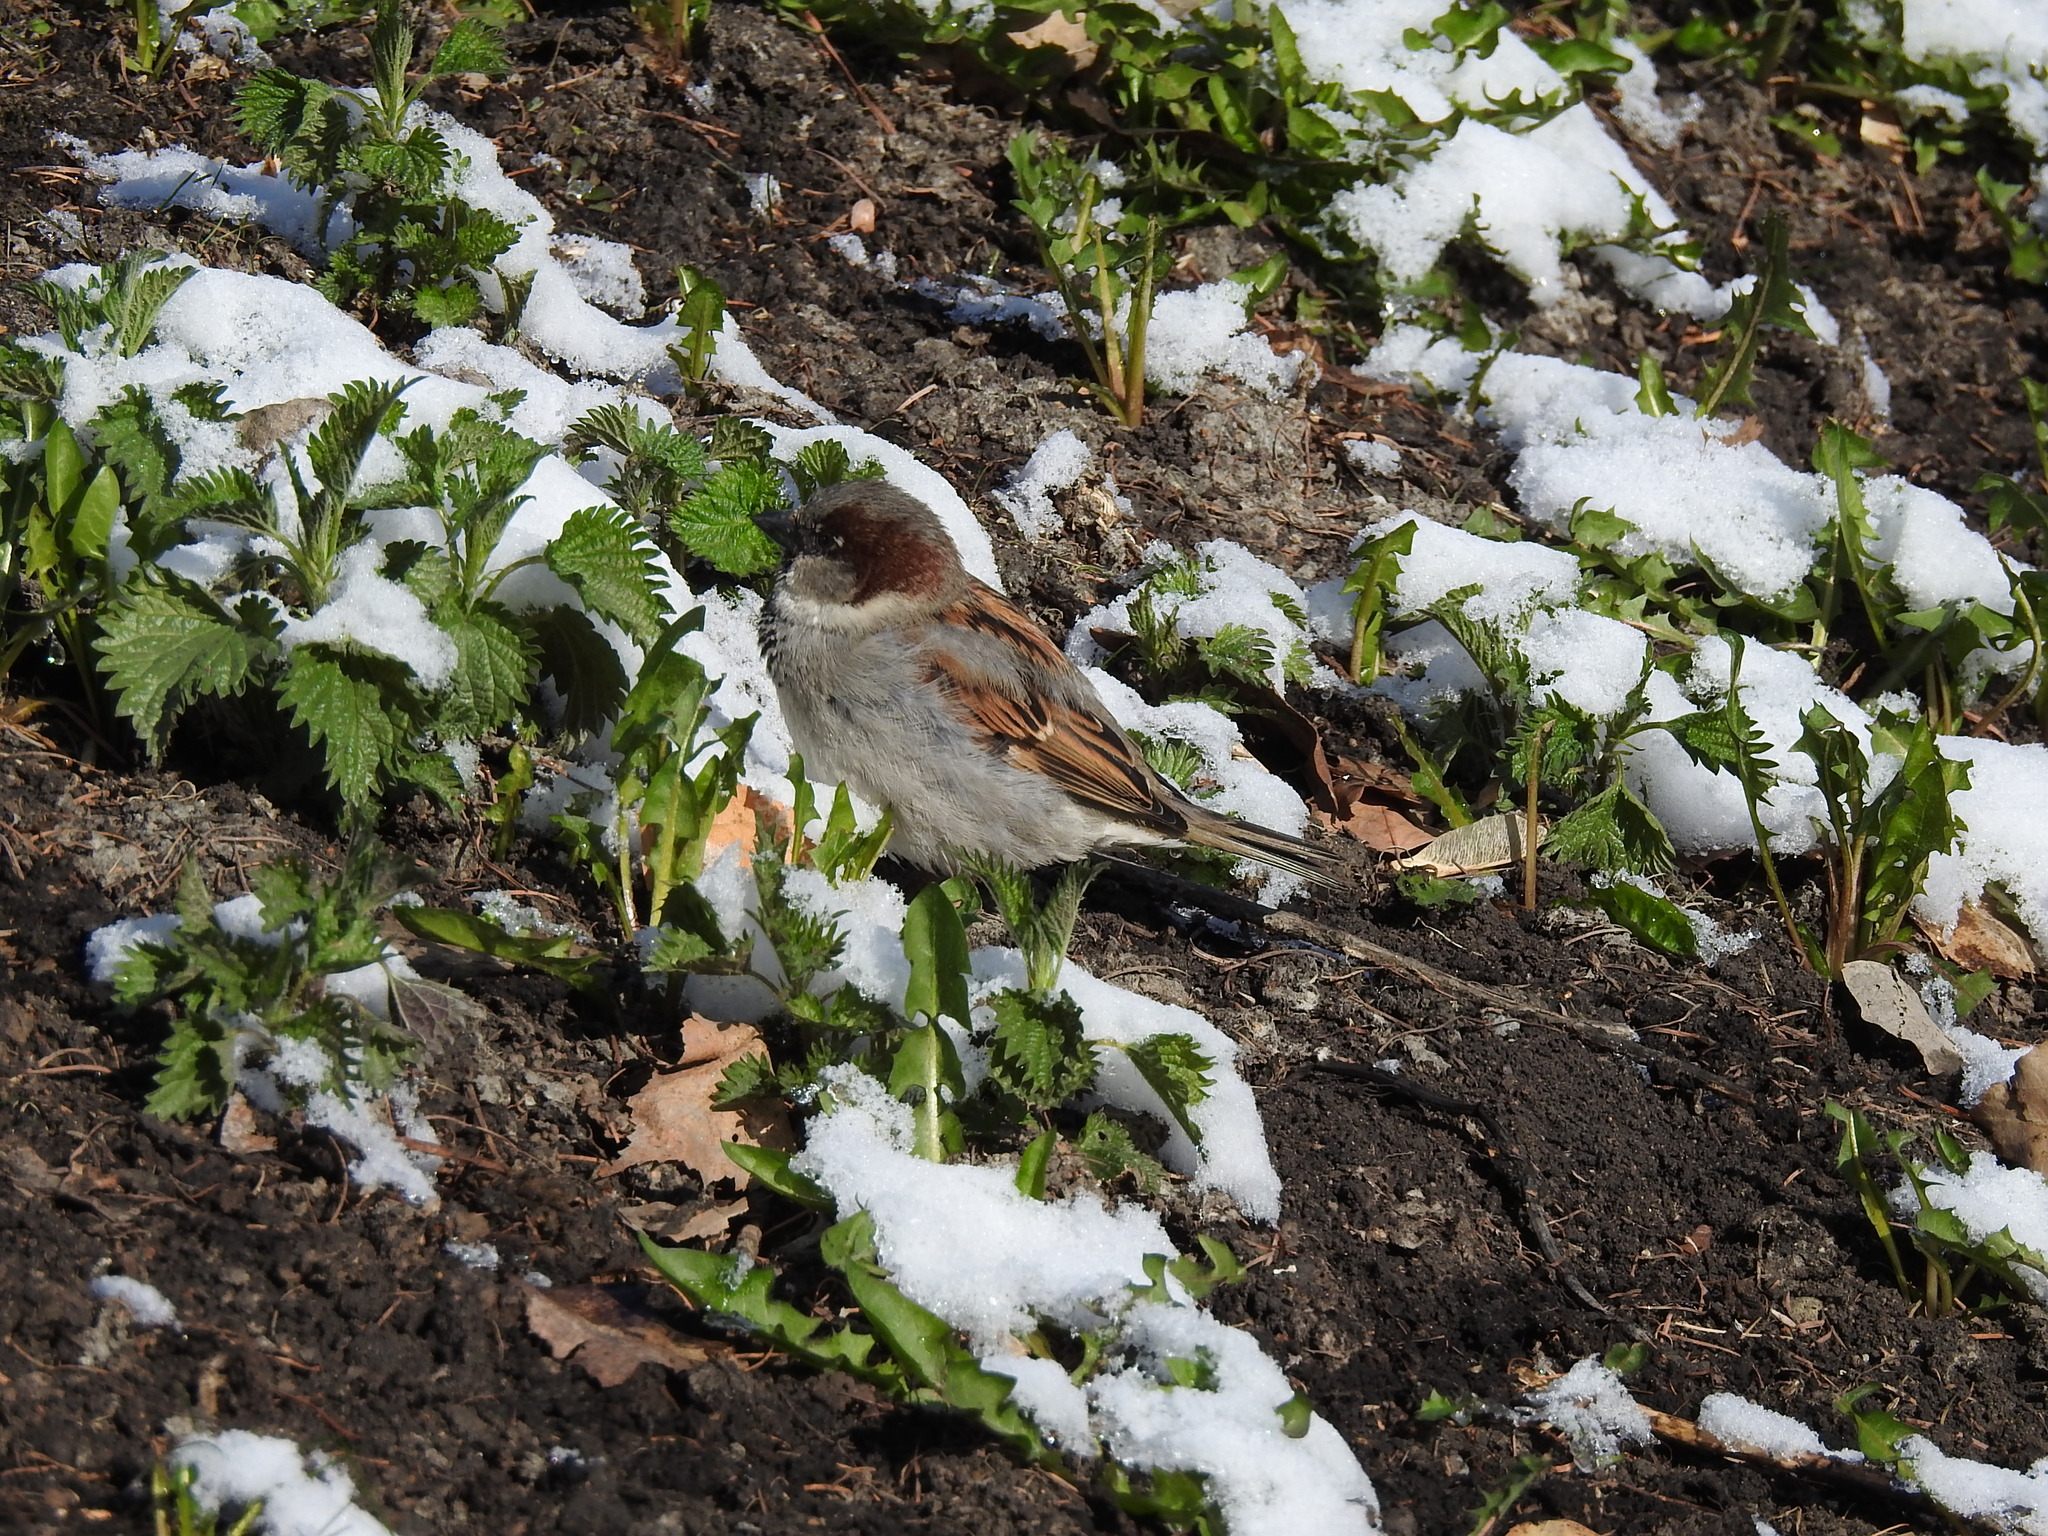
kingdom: Animalia
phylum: Chordata
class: Aves
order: Passeriformes
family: Passeridae
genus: Passer
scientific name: Passer domesticus
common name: House sparrow
